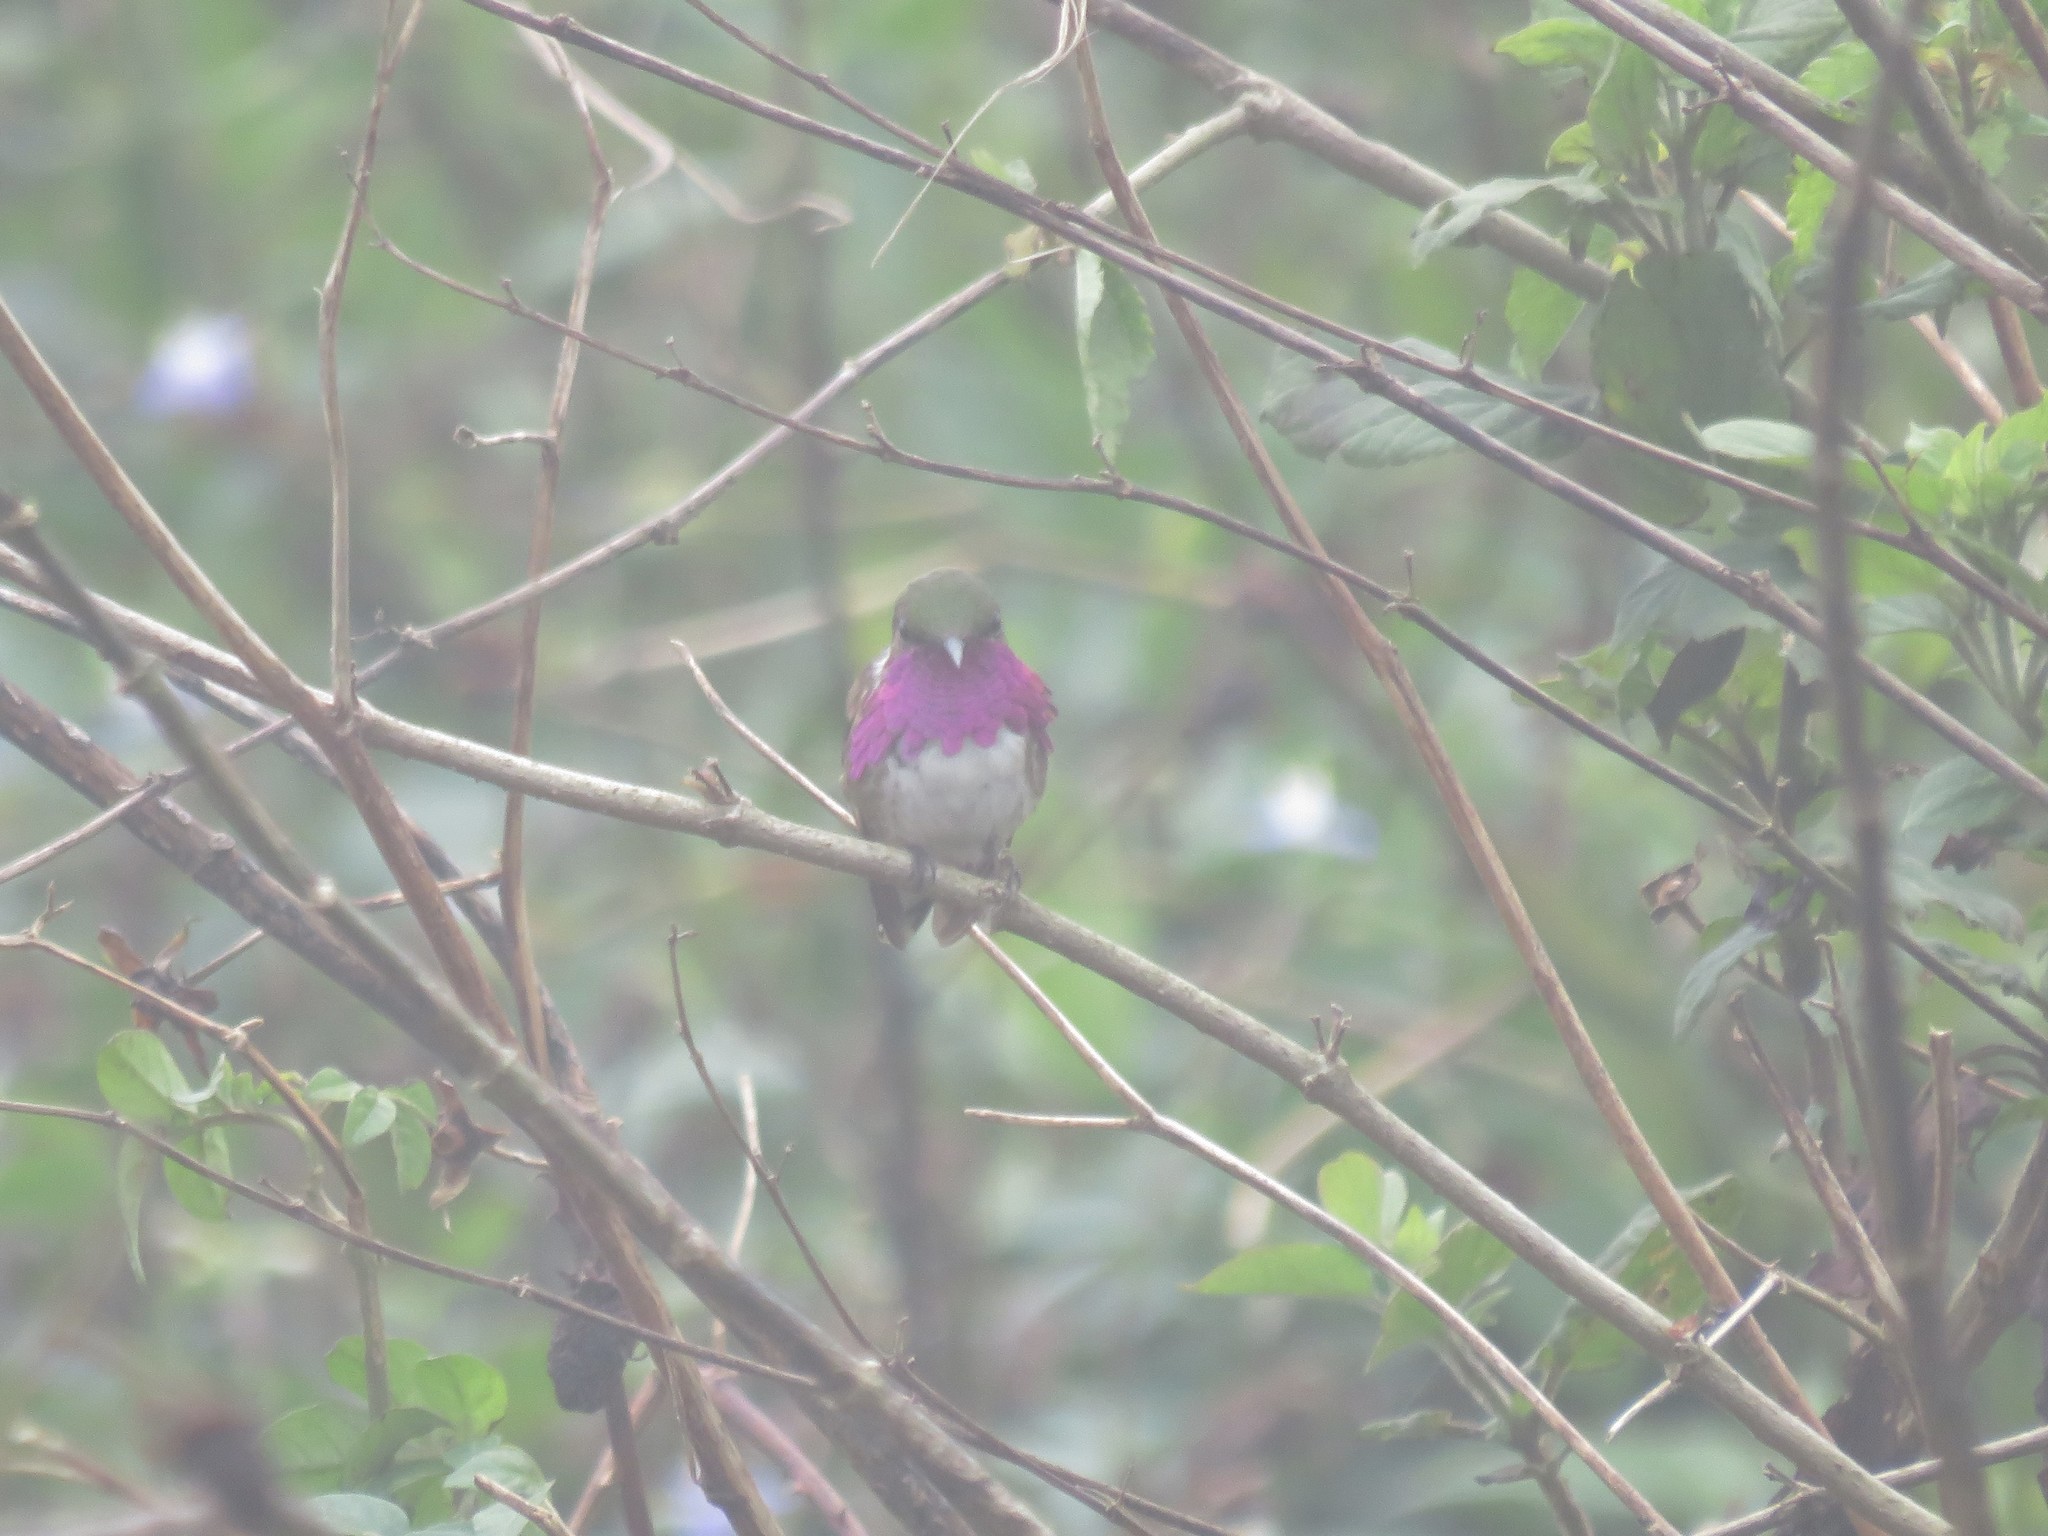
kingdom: Animalia
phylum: Chordata
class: Aves
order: Apodiformes
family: Trochilidae
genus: Selasphorus
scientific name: Selasphorus ellioti
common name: Wine-throated hummingbird
